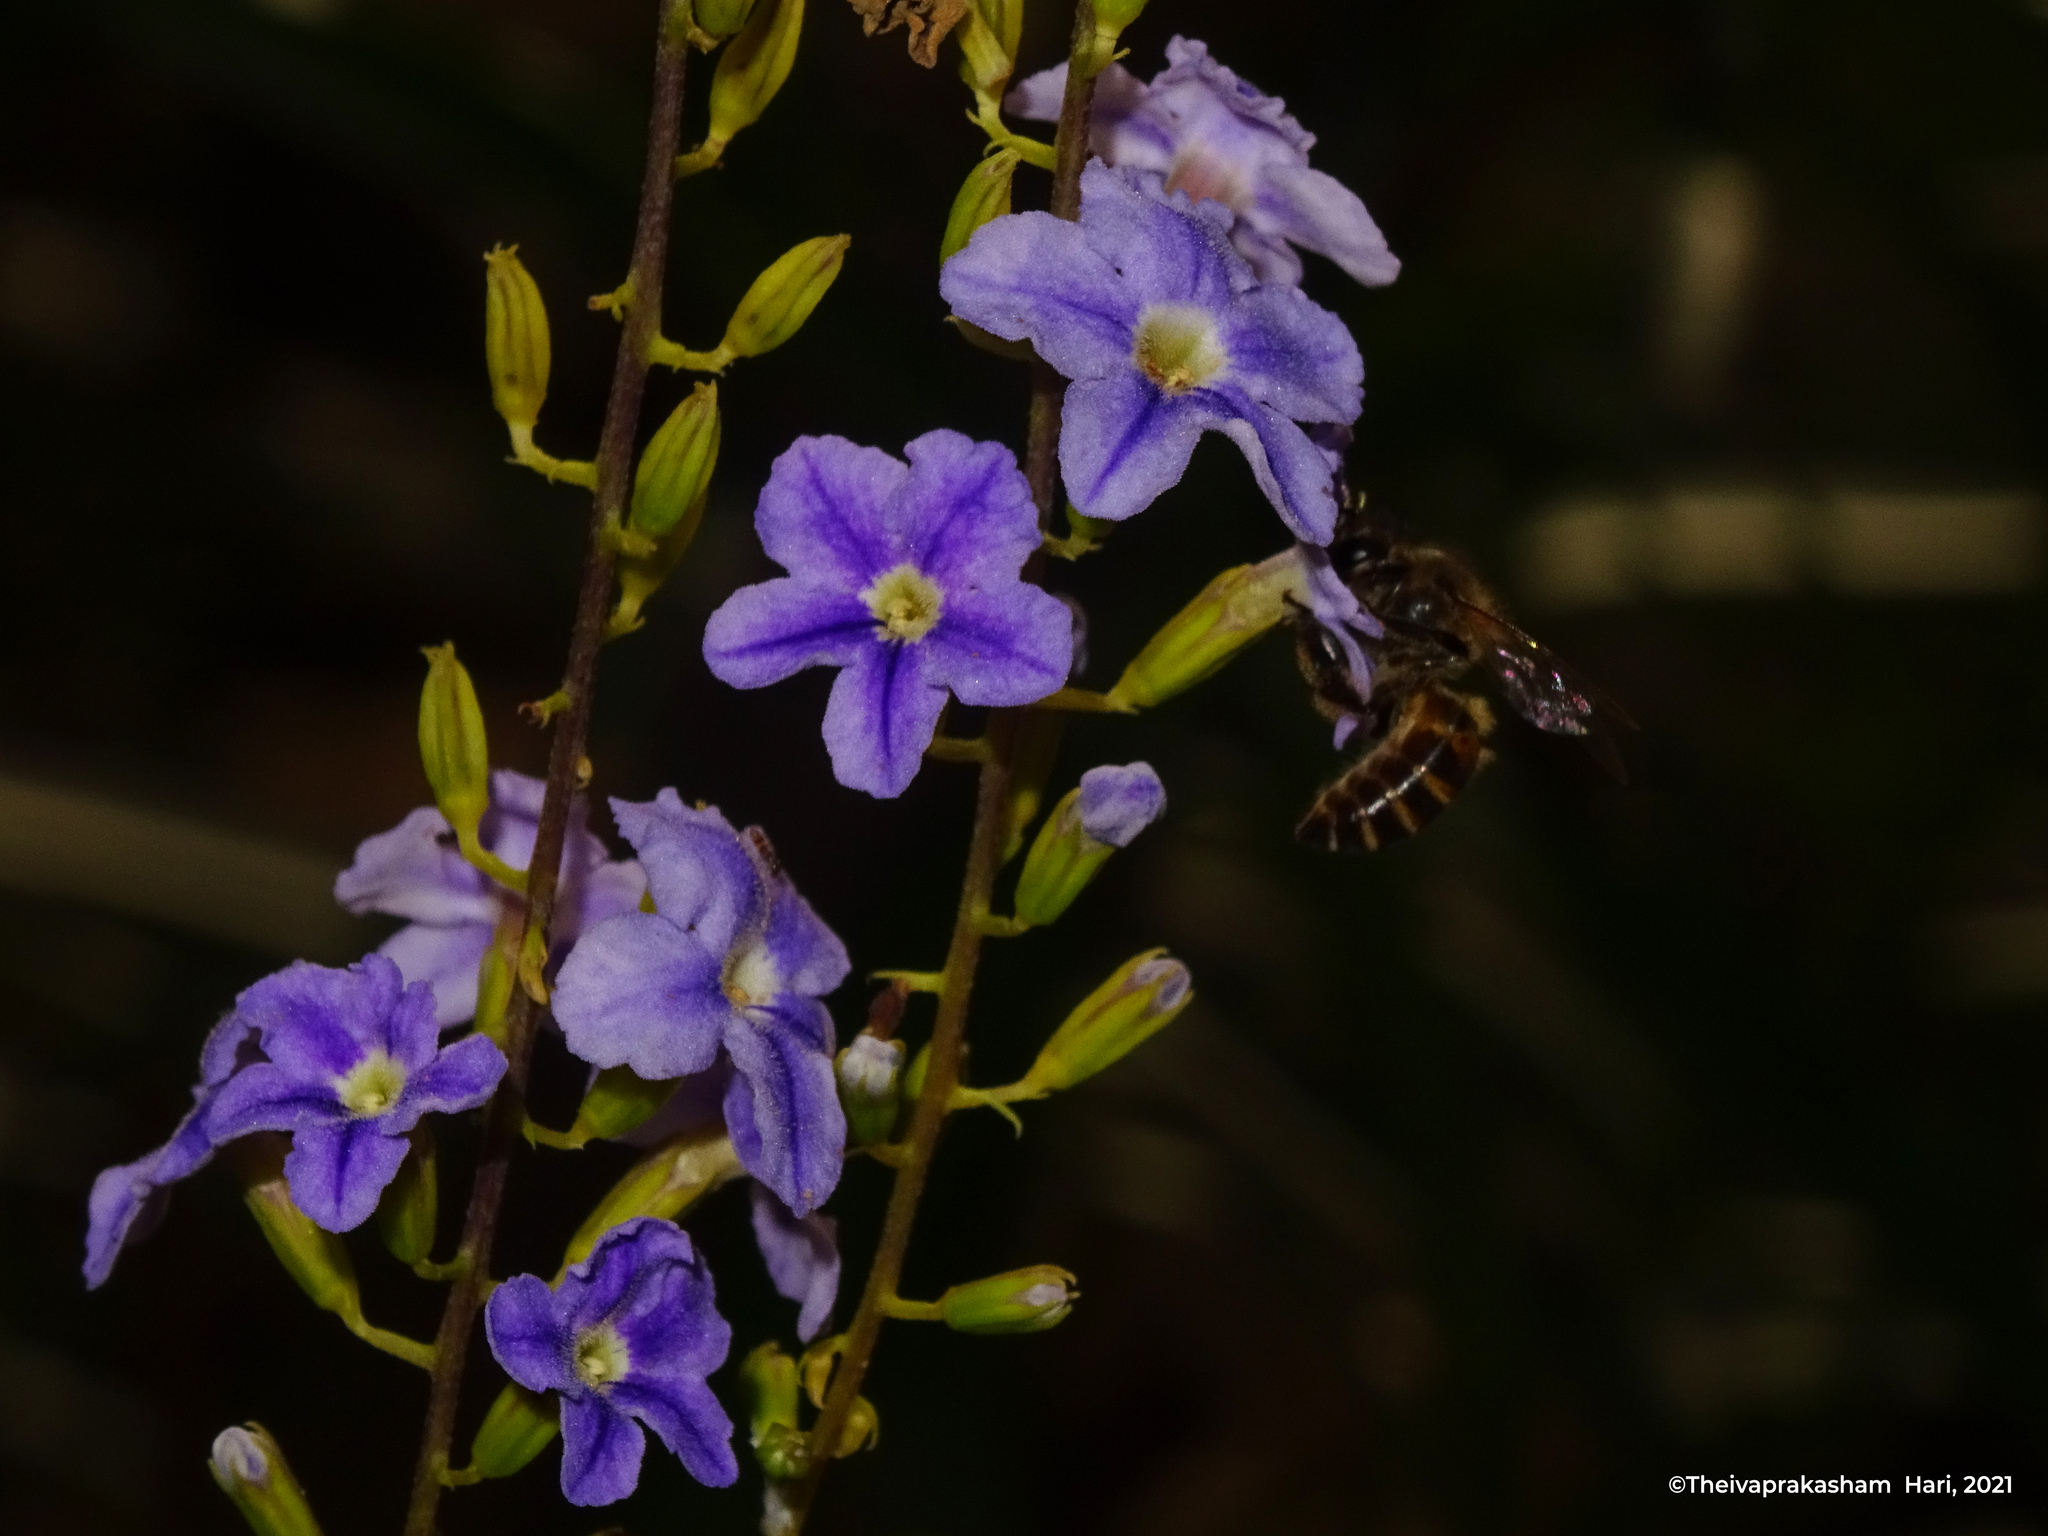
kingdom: Plantae
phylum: Tracheophyta
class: Magnoliopsida
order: Lamiales
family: Verbenaceae
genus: Duranta
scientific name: Duranta erecta
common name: Golden dewdrops
